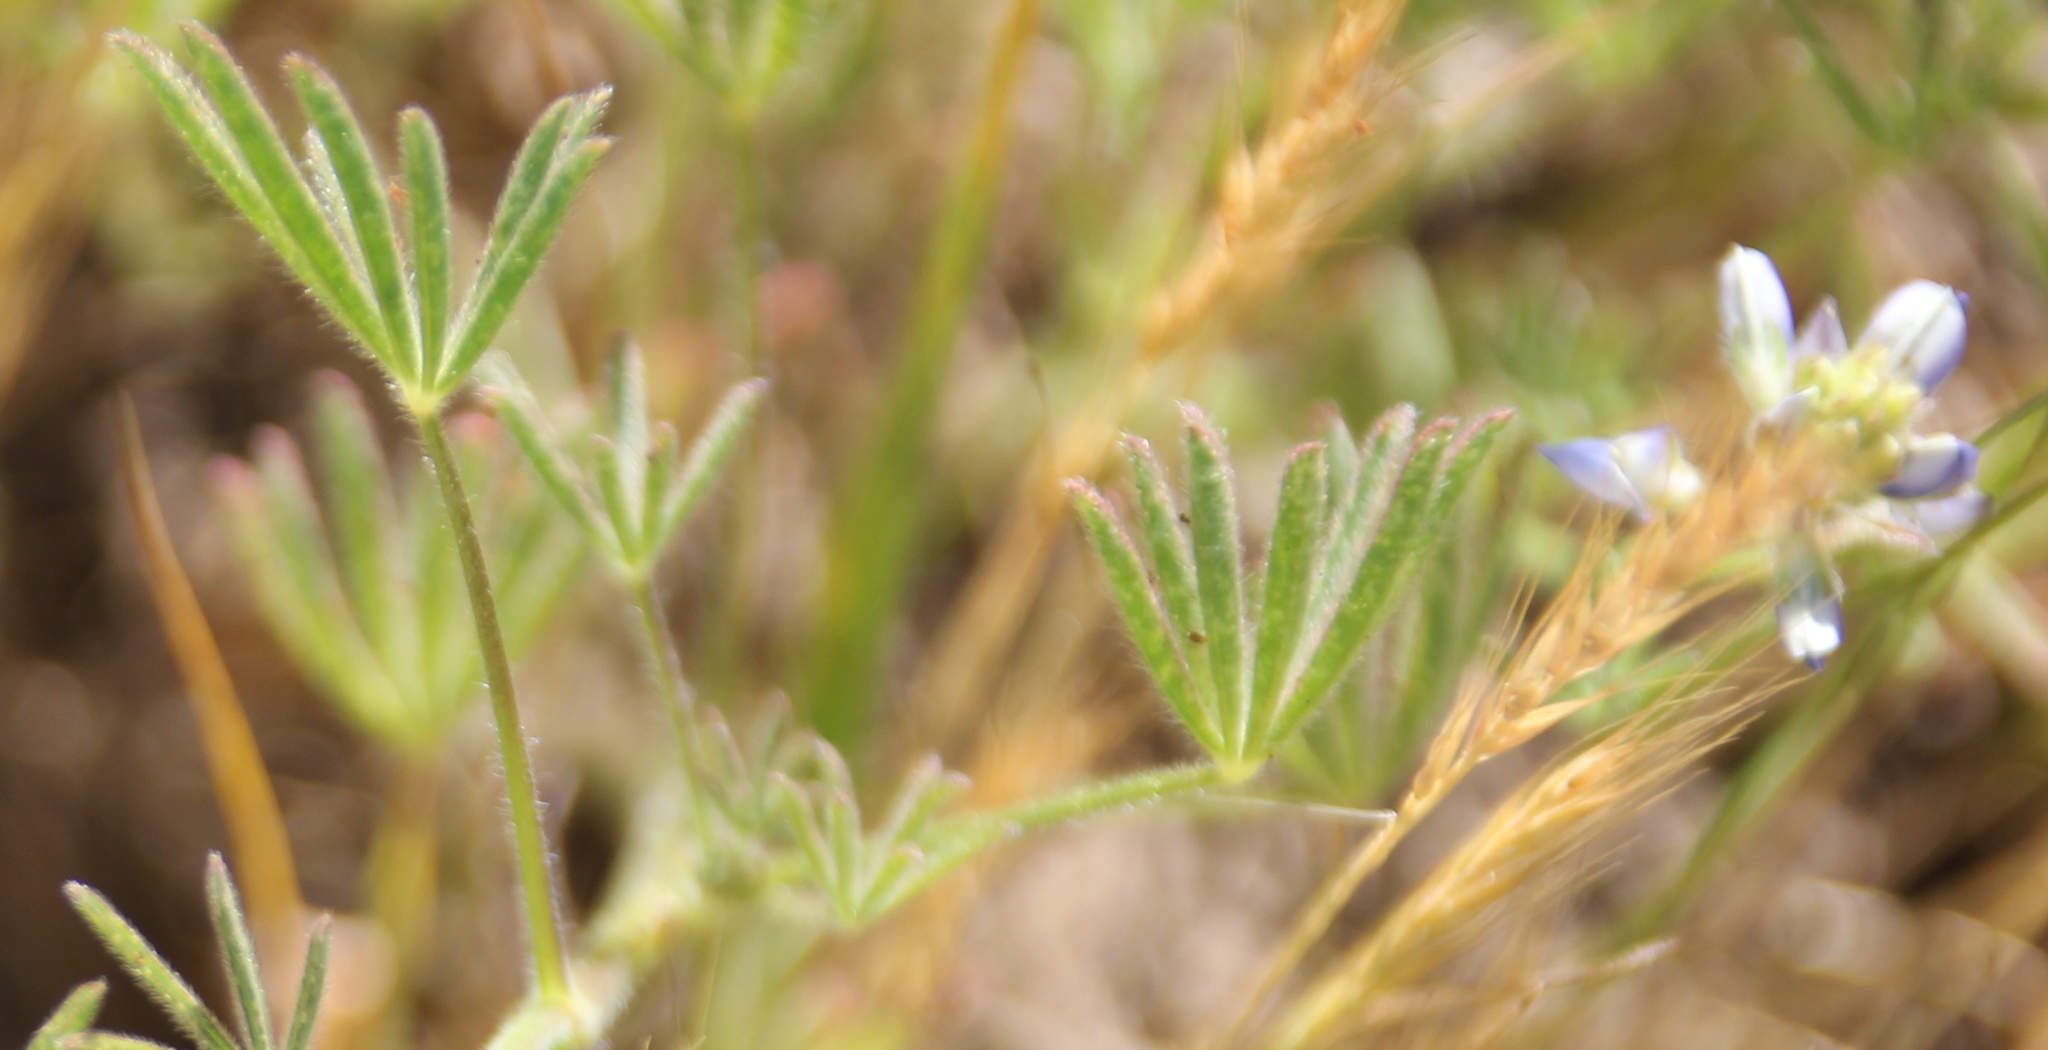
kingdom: Plantae
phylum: Tracheophyta
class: Magnoliopsida
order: Fabales
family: Fabaceae
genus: Lupinus
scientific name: Lupinus bicolor
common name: Miniature lupine
